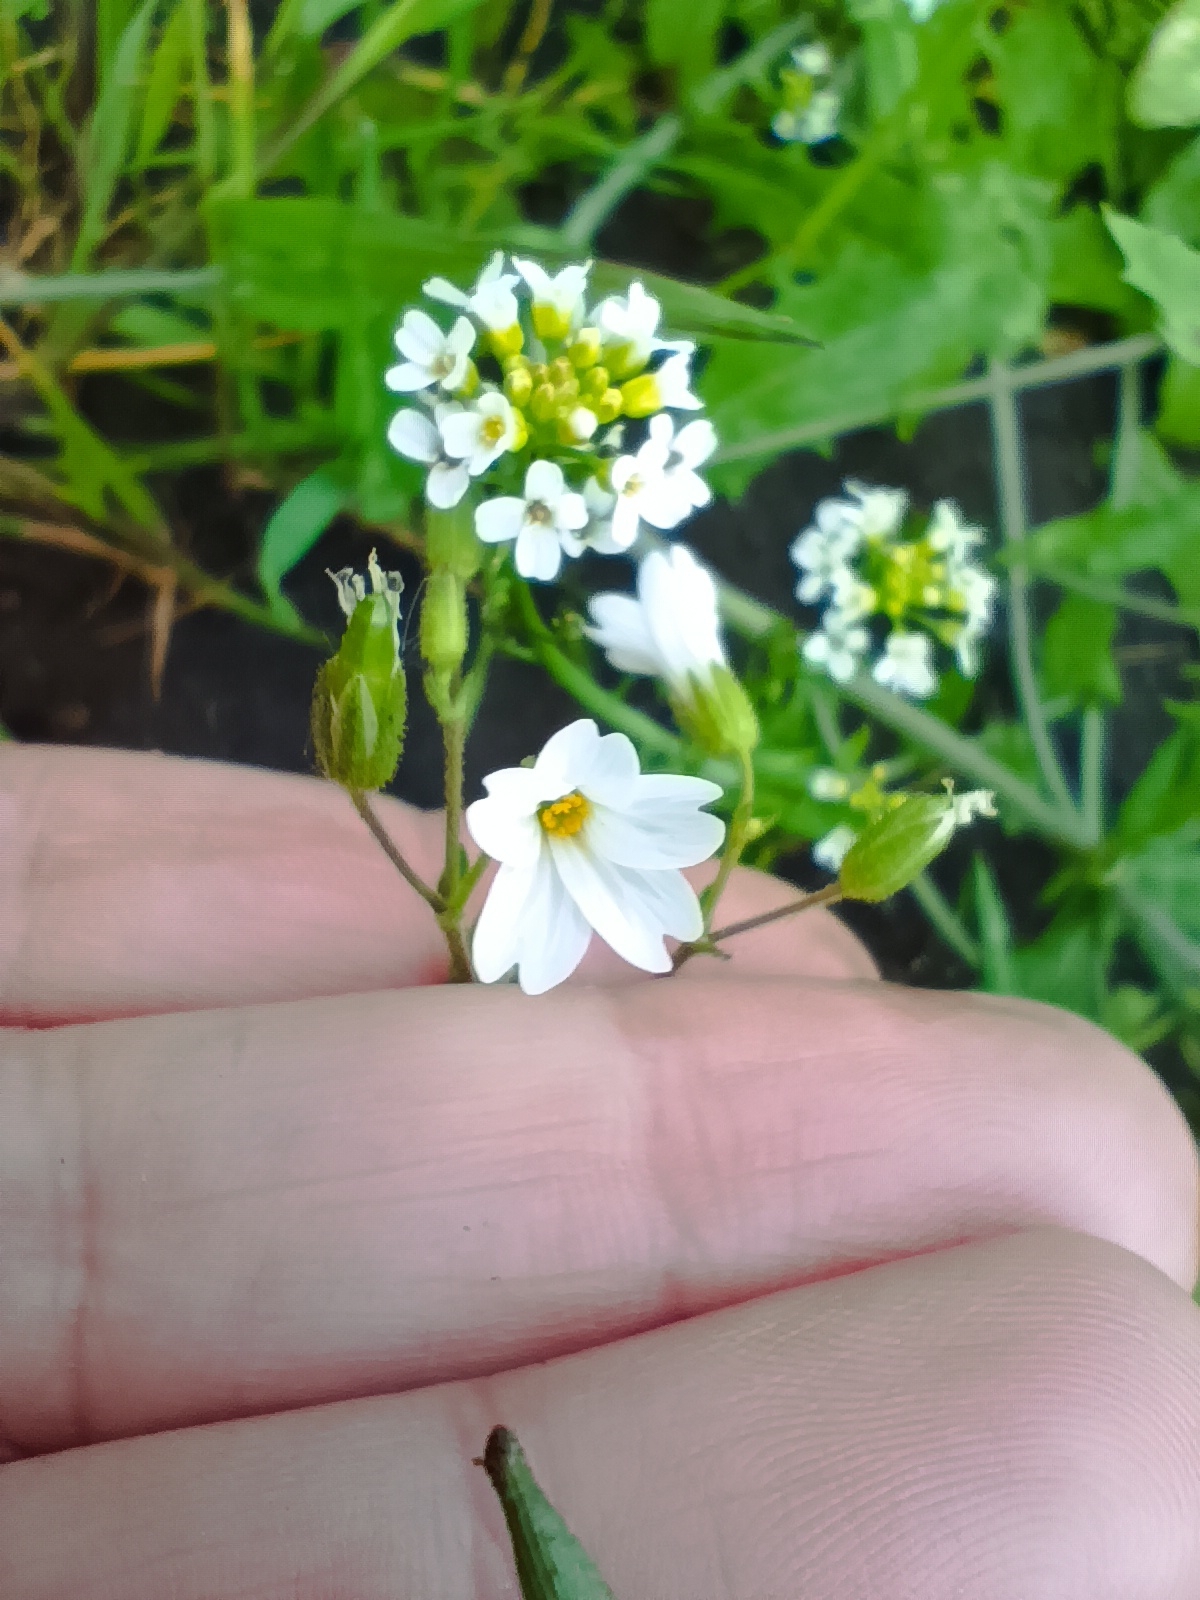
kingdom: Plantae
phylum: Tracheophyta
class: Magnoliopsida
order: Caryophyllales
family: Caryophyllaceae
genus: Dichodon
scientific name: Dichodon viscidum
